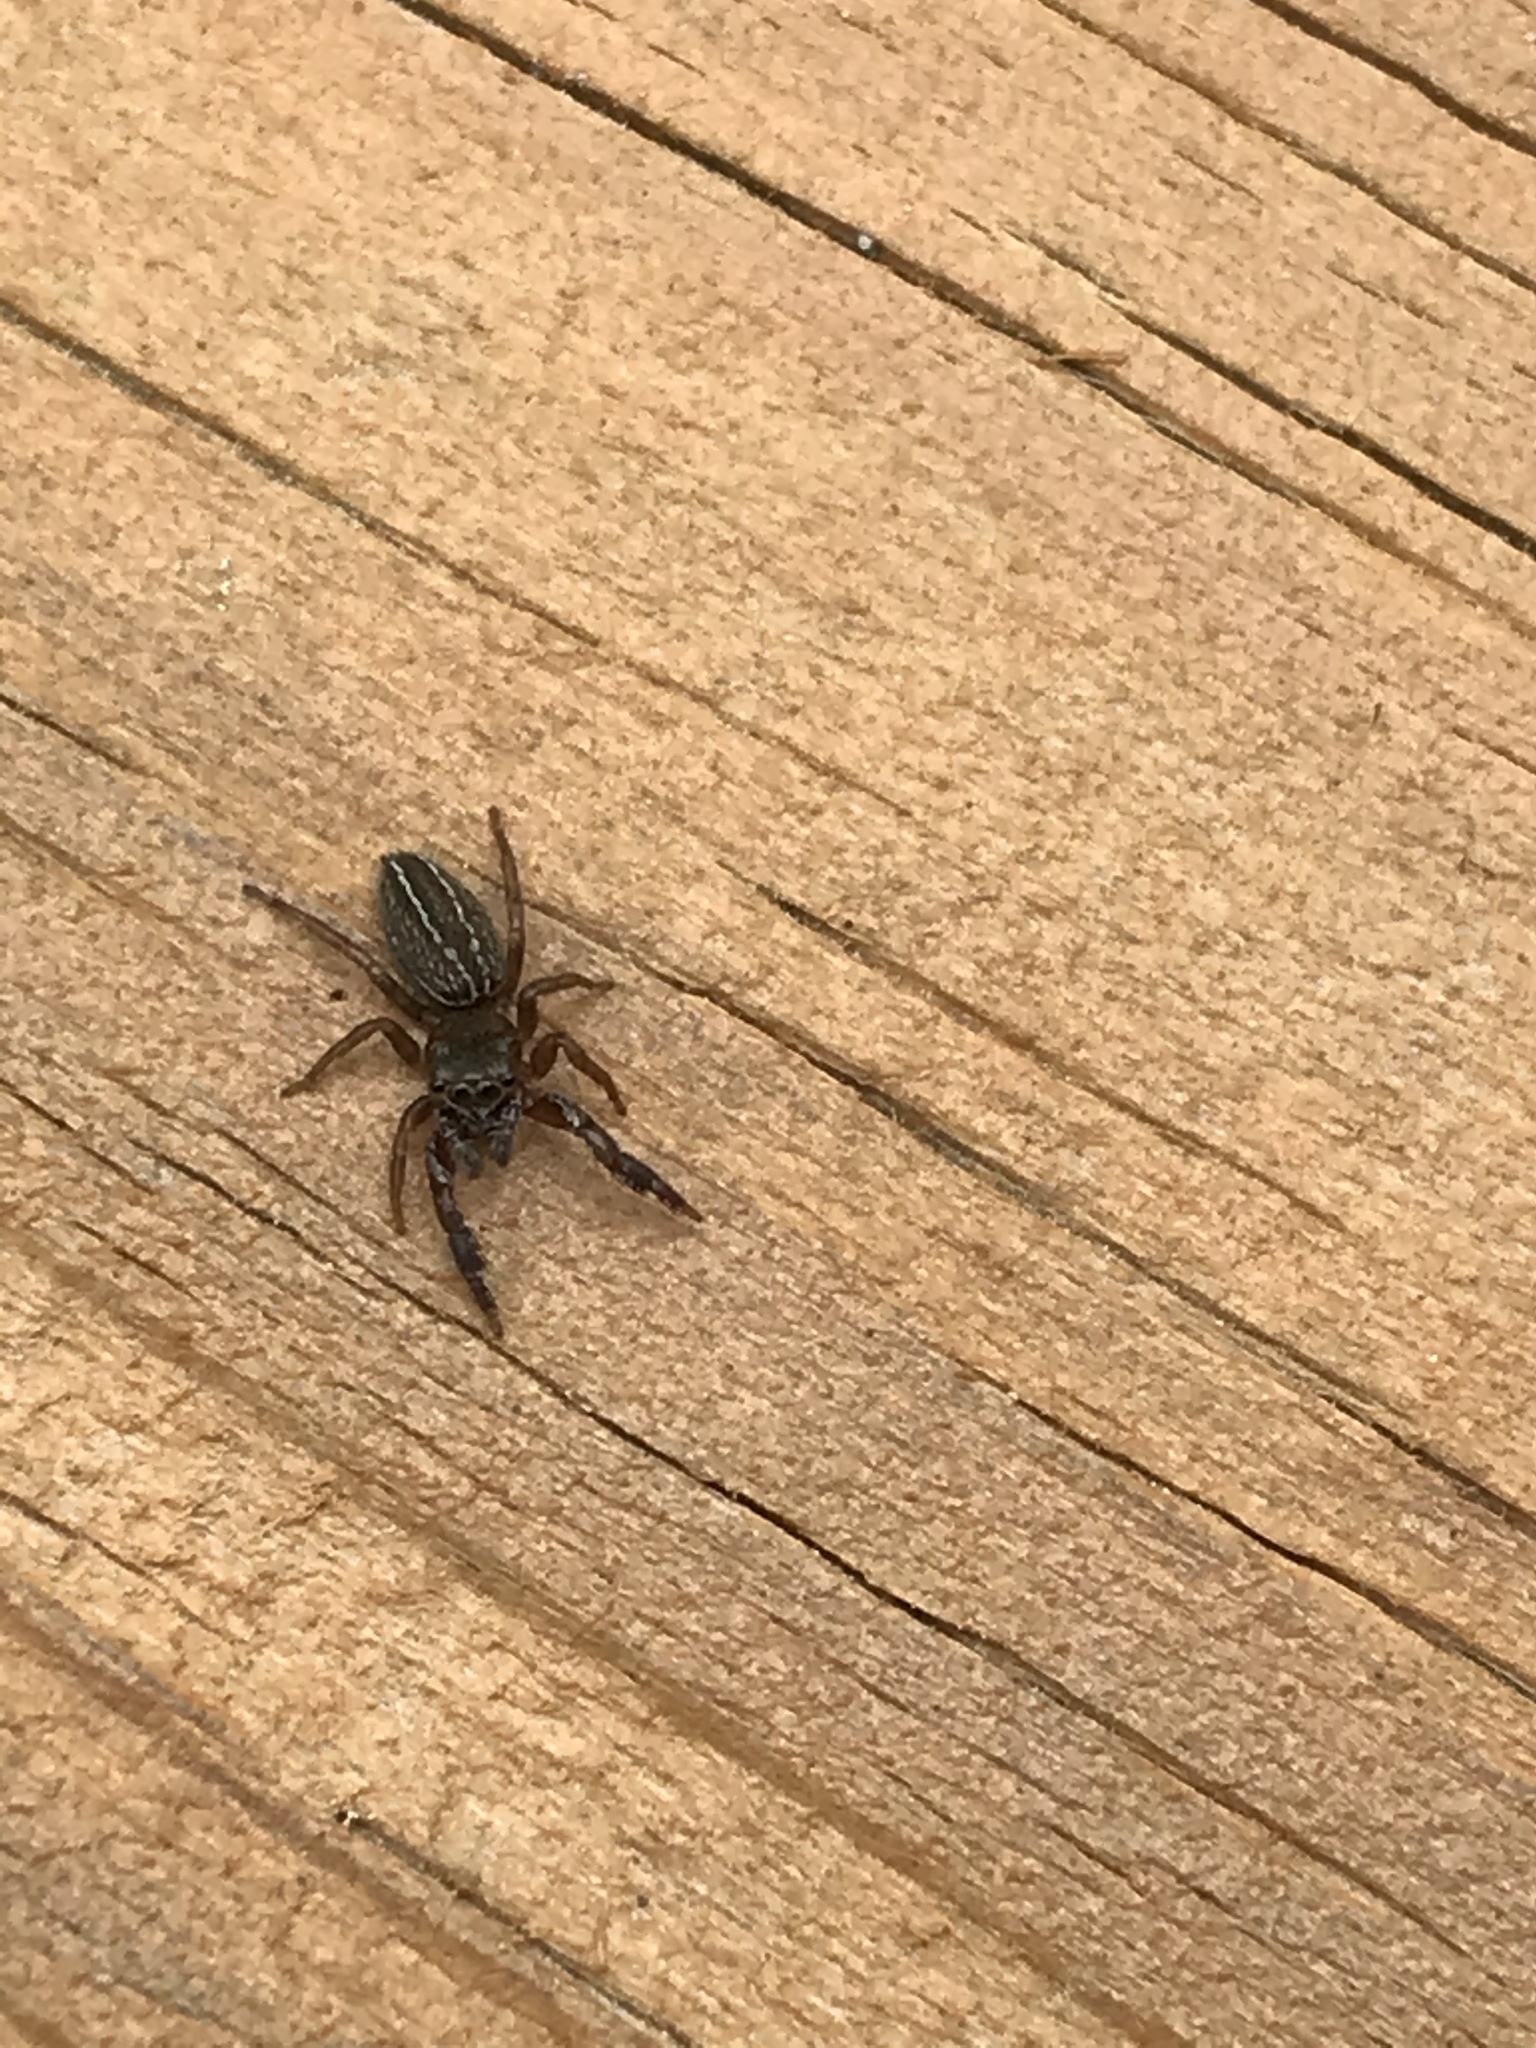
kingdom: Animalia
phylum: Arthropoda
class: Arachnida
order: Araneae
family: Salticidae
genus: Metacyrba
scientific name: Metacyrba taeniola
